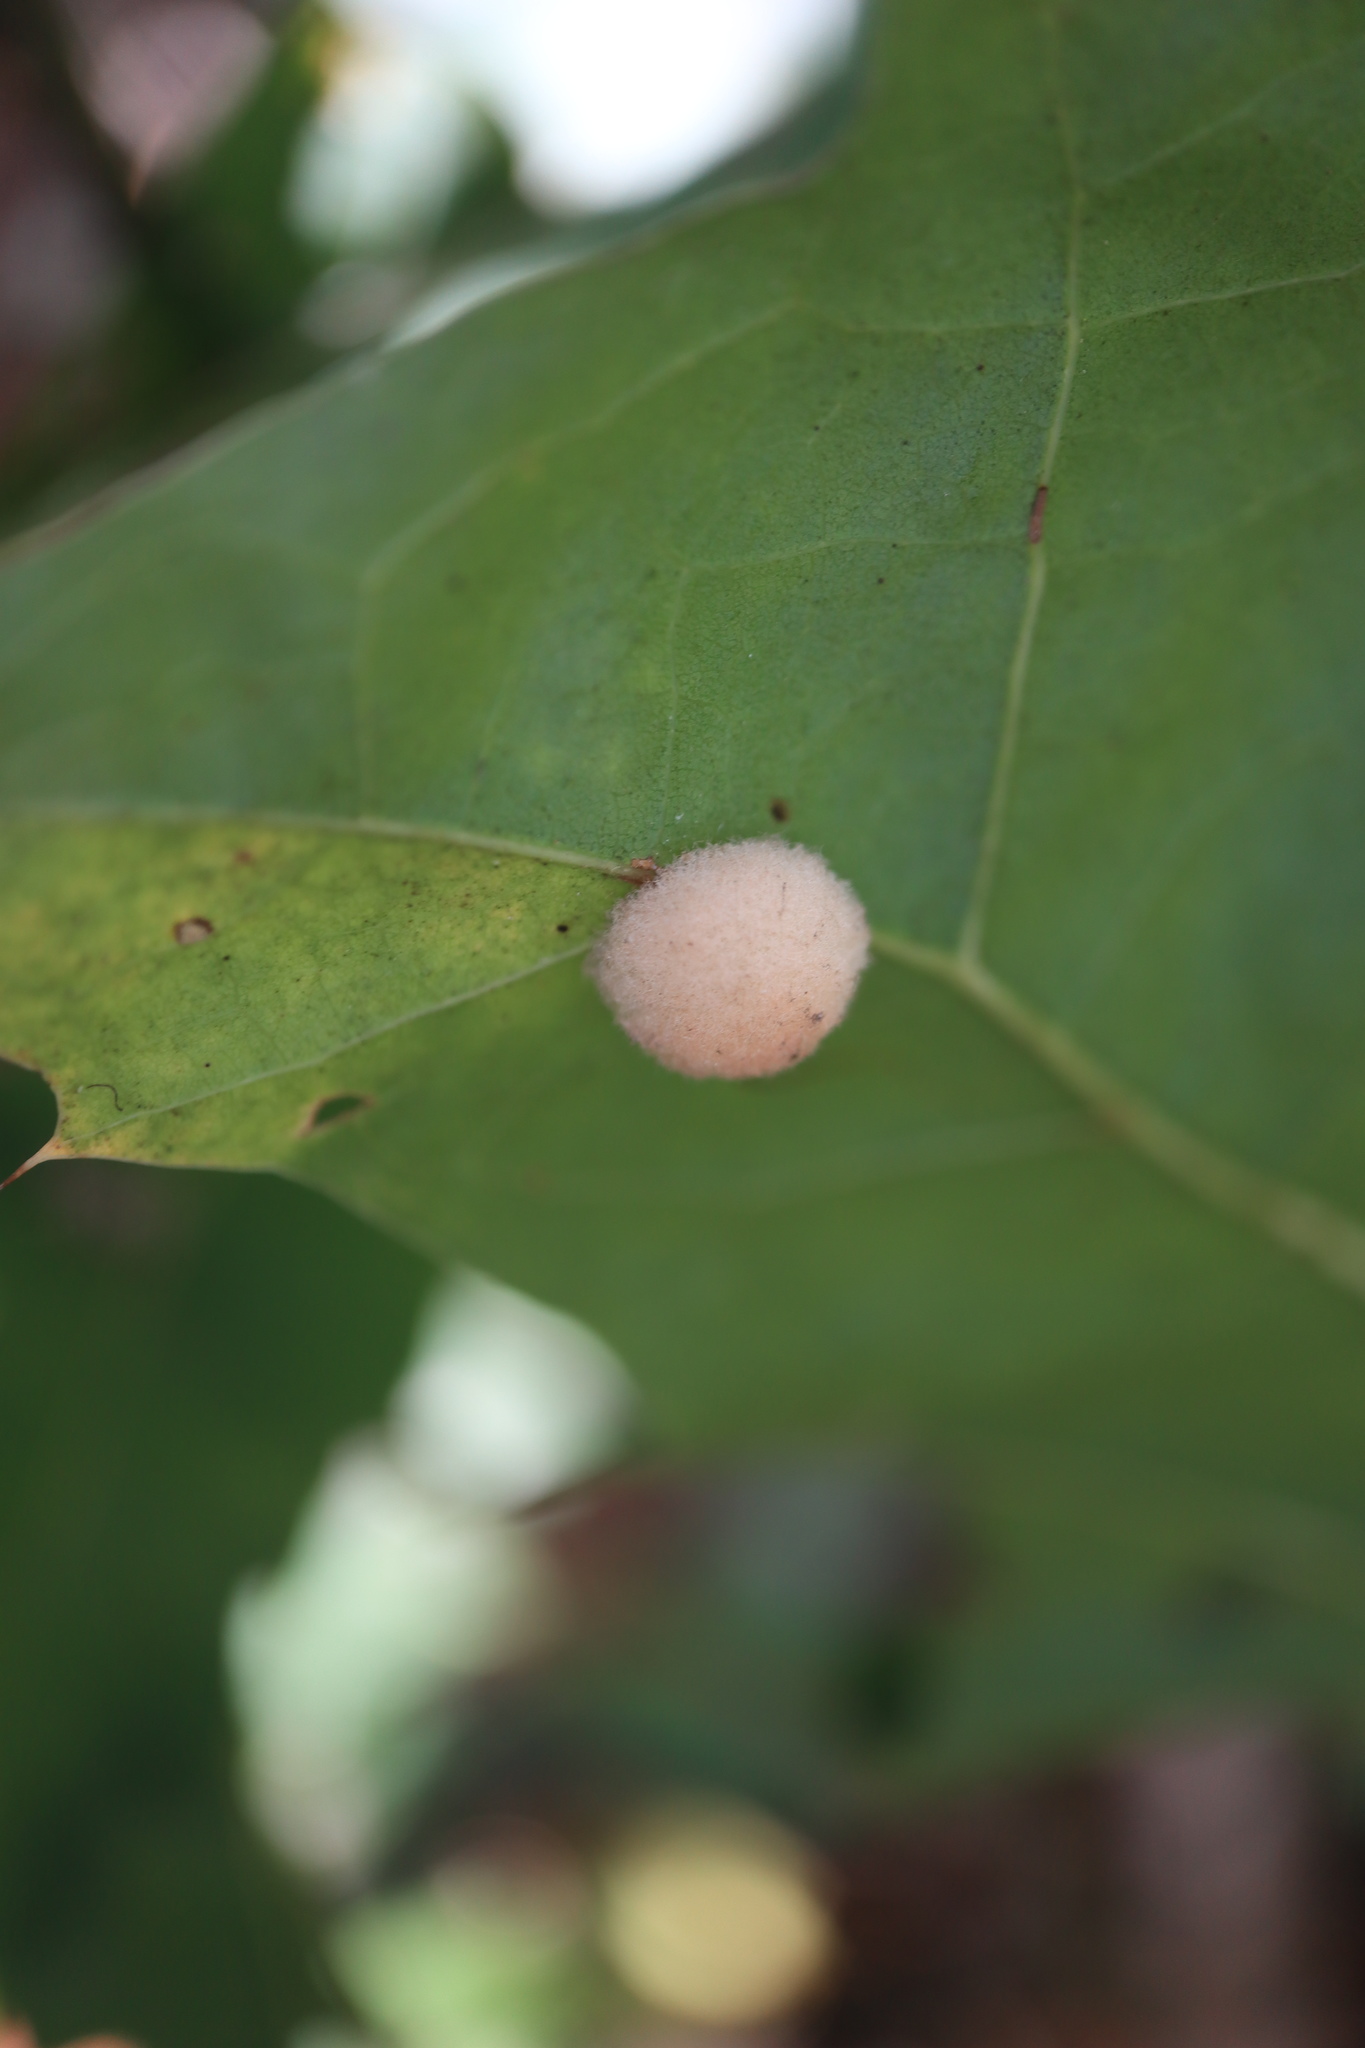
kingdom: Animalia
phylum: Arthropoda
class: Insecta
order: Hymenoptera
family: Cynipidae
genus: Callirhytis
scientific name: Callirhytis
